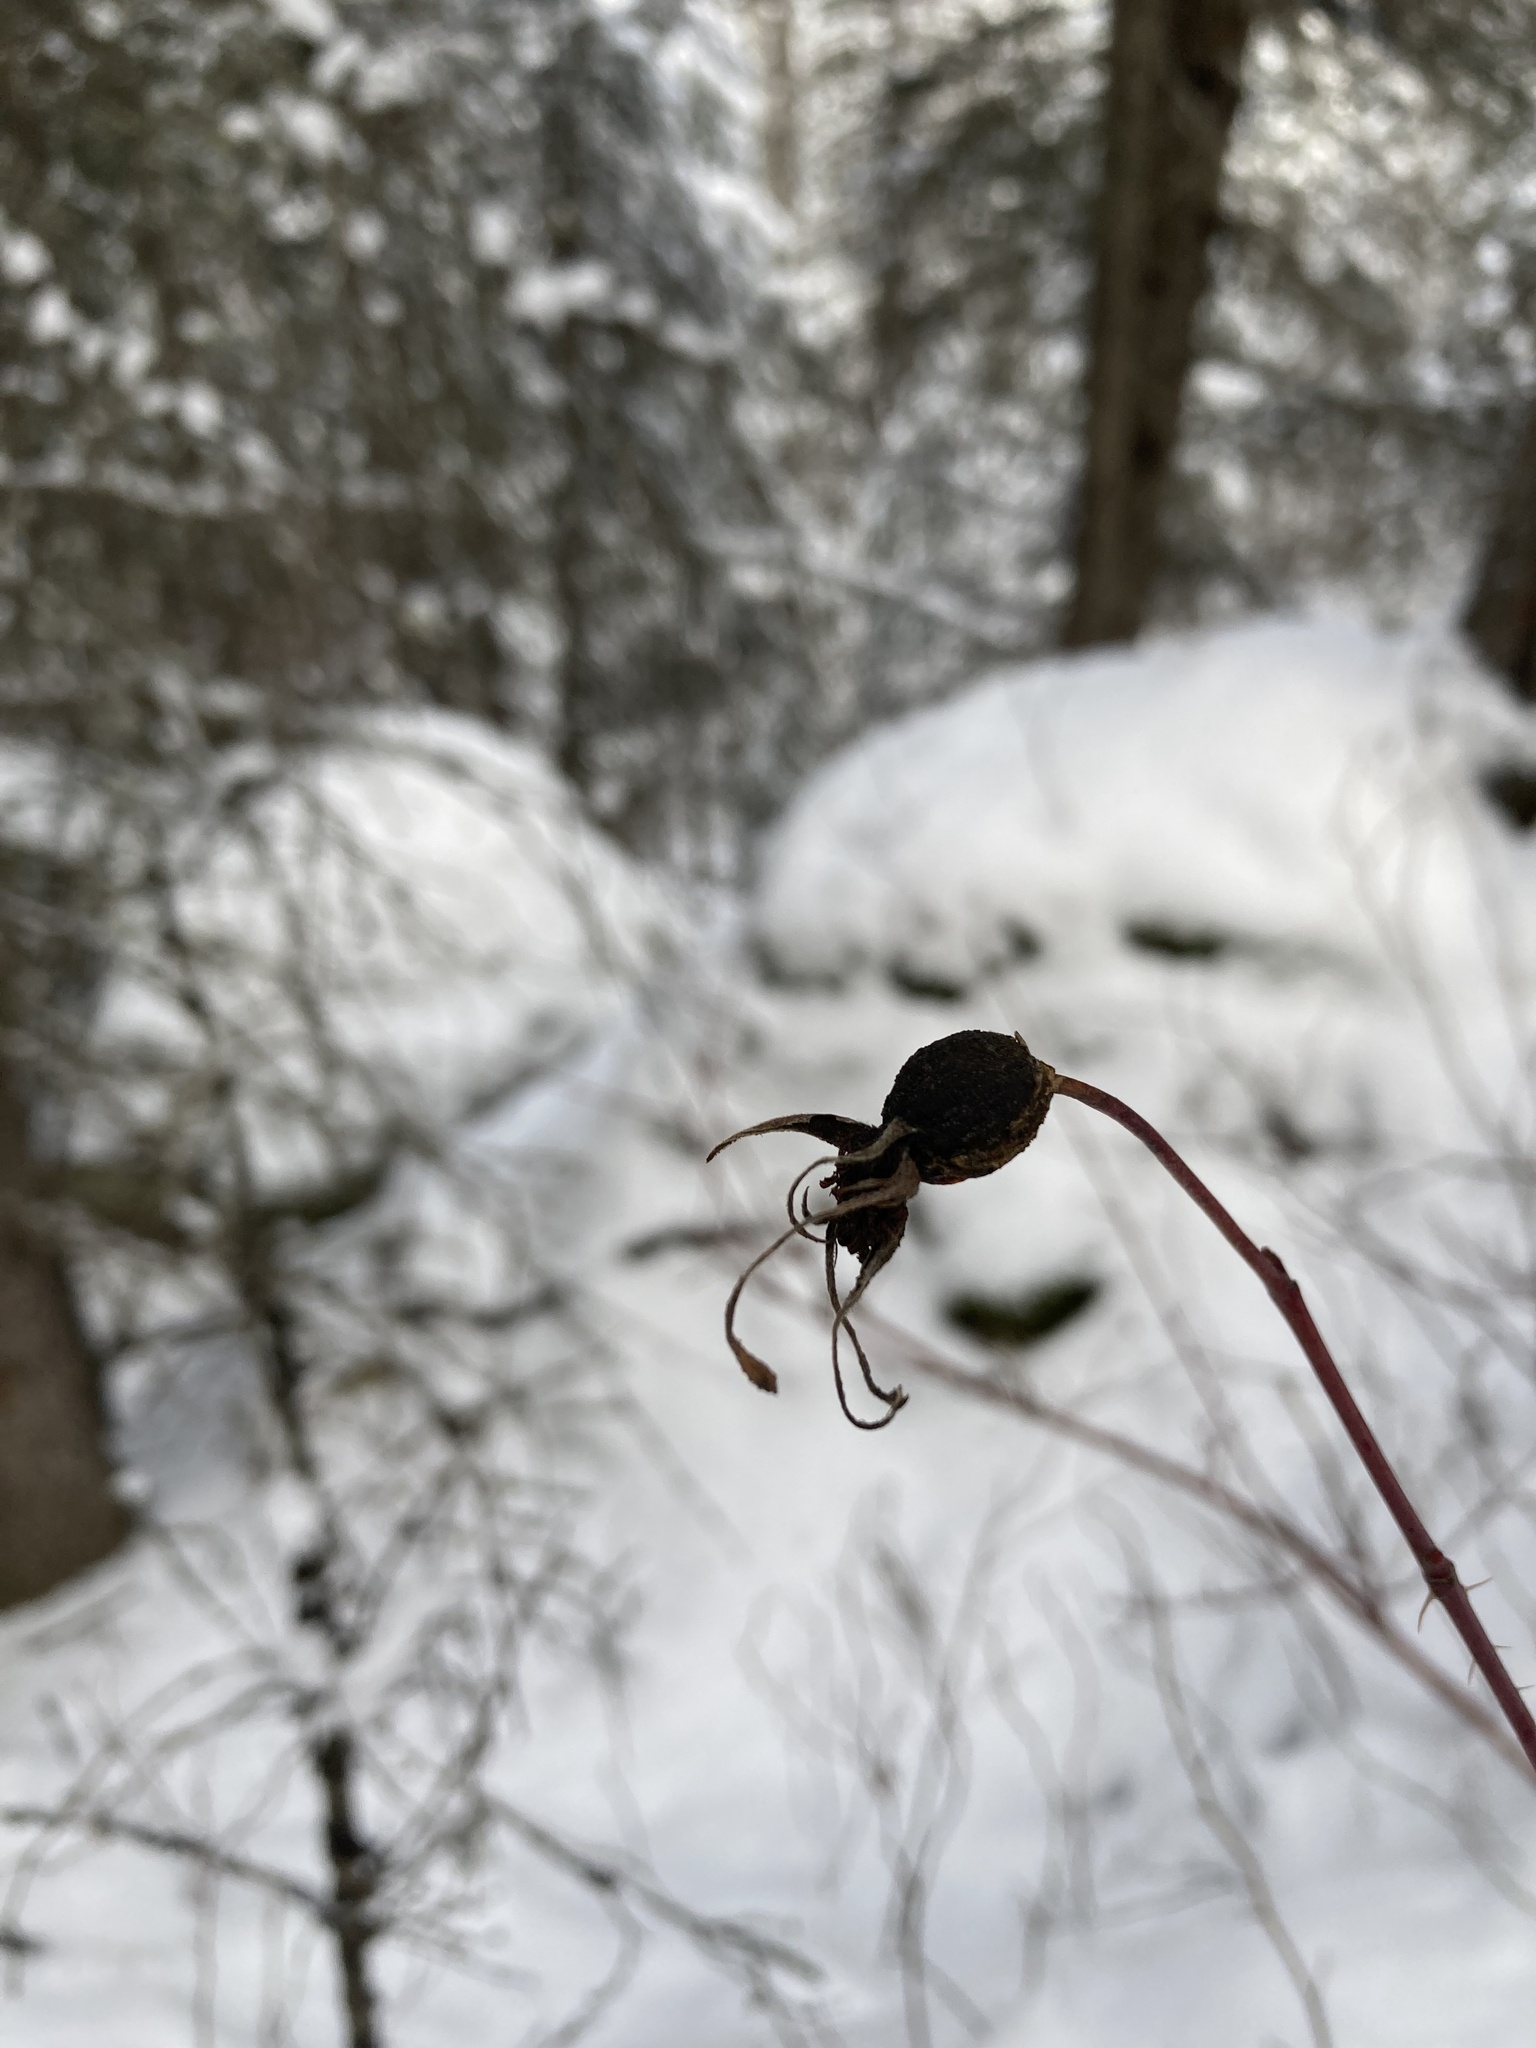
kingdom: Plantae
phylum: Tracheophyta
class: Magnoliopsida
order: Rosales
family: Rosaceae
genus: Rosa
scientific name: Rosa acicularis
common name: Prickly rose
